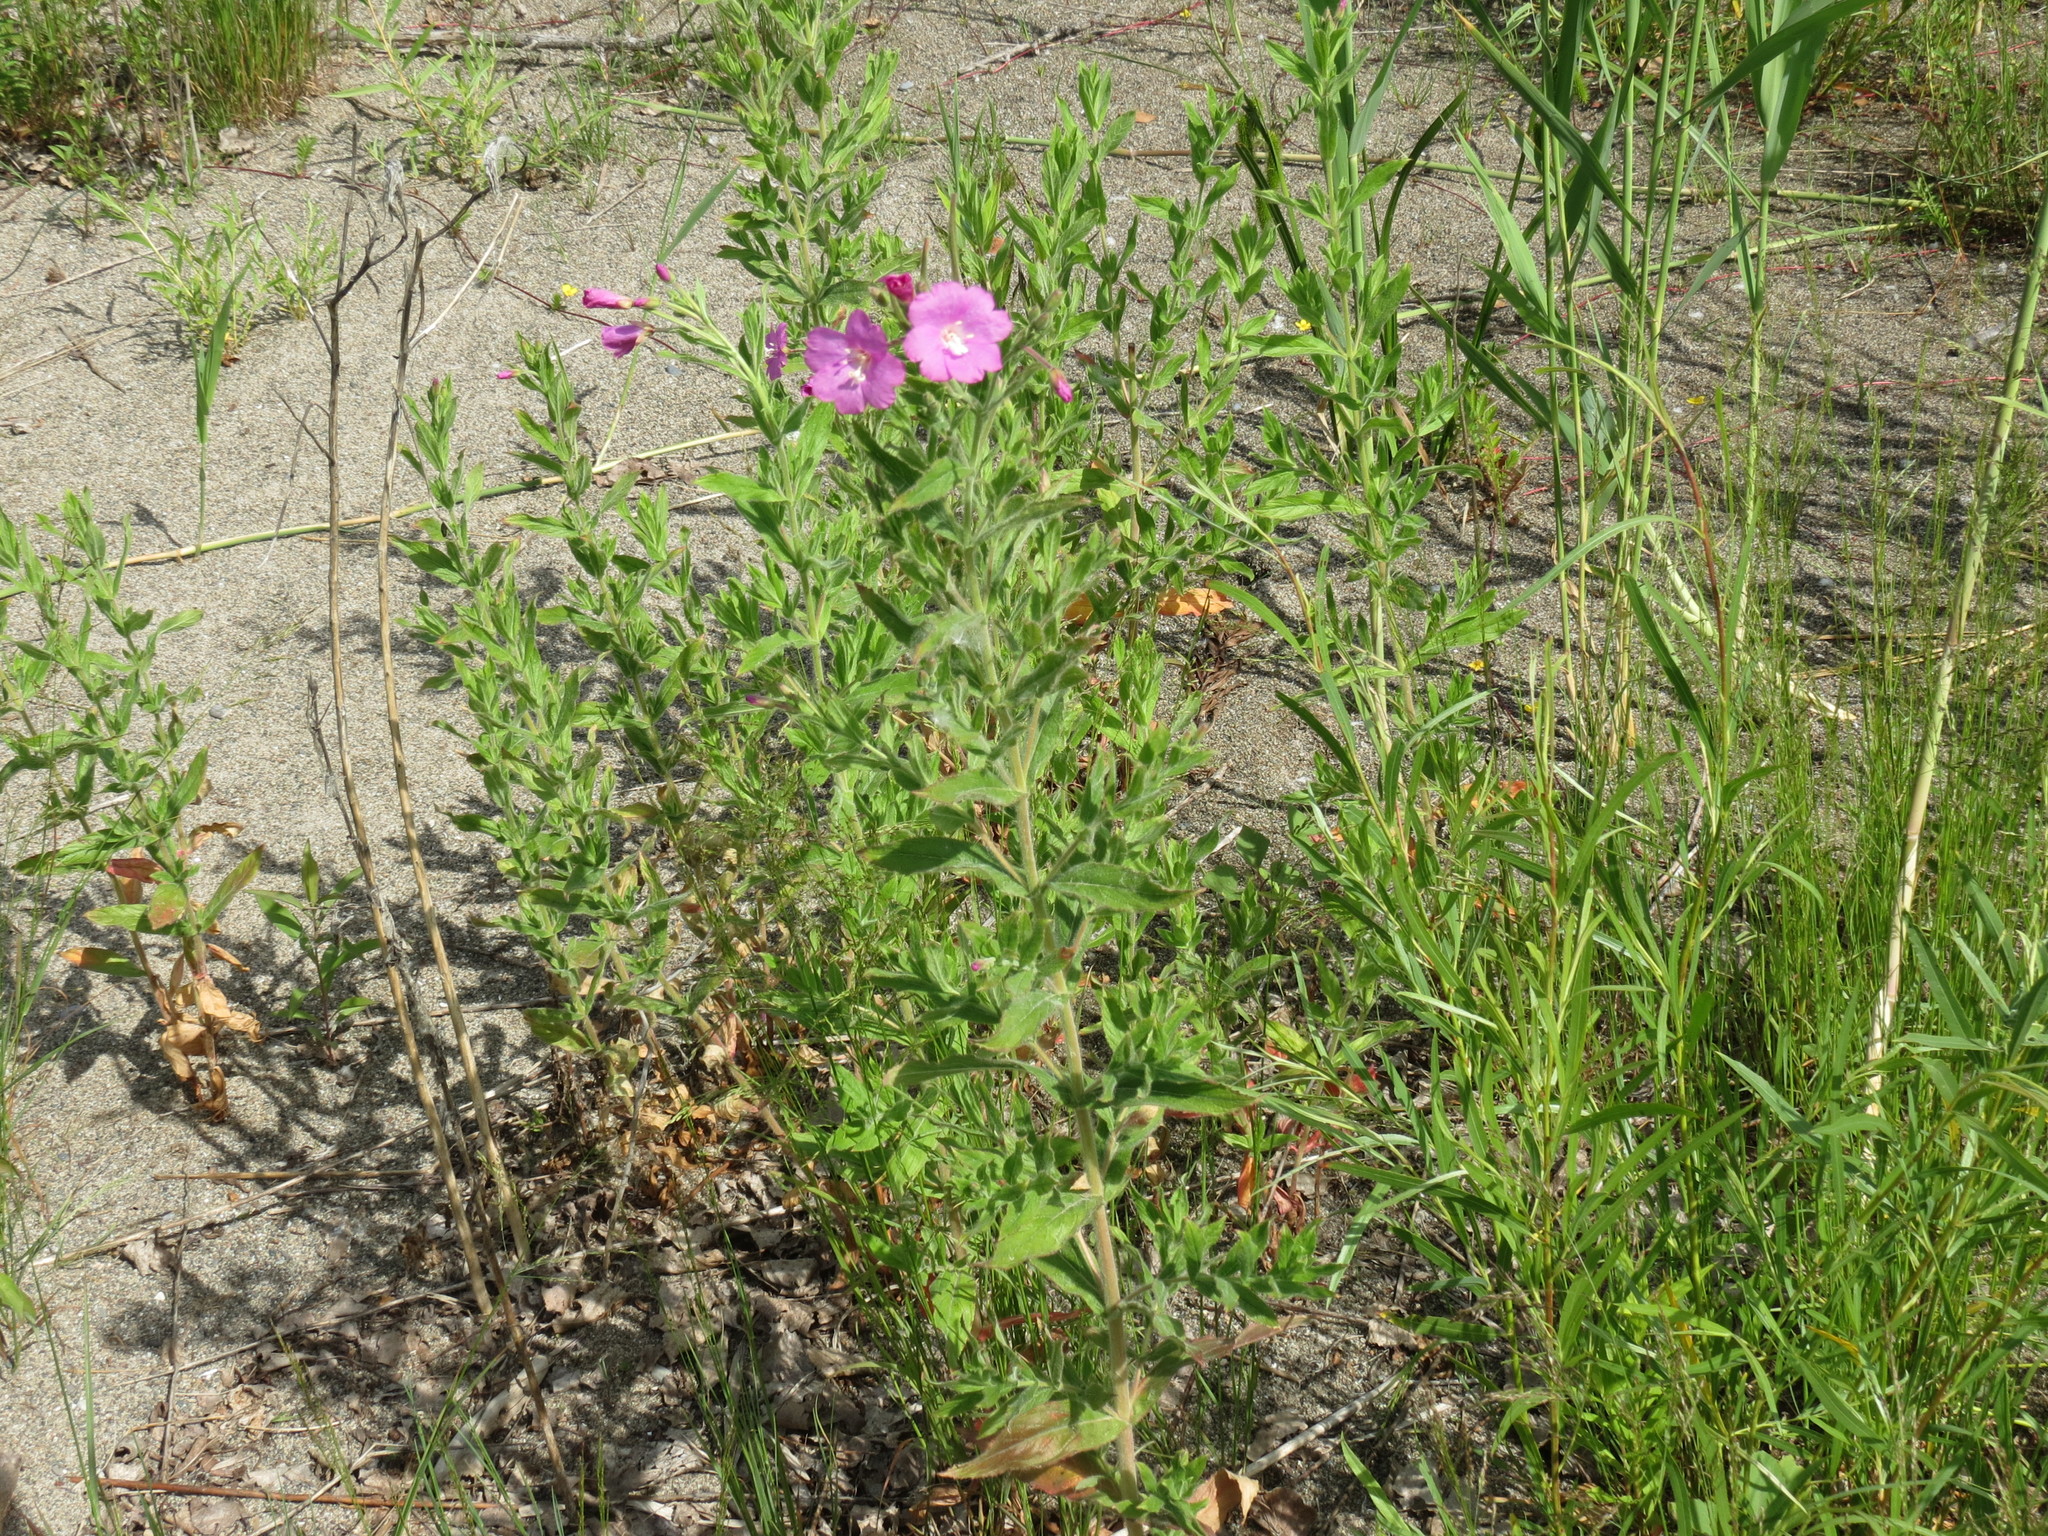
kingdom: Plantae
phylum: Tracheophyta
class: Magnoliopsida
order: Myrtales
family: Onagraceae
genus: Epilobium
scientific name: Epilobium hirsutum
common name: Great willowherb
